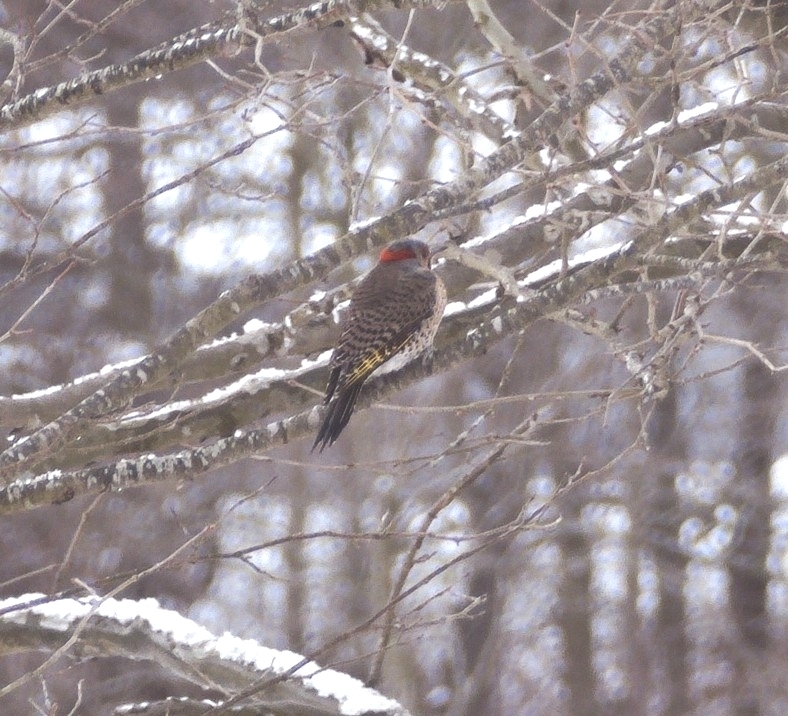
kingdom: Animalia
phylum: Chordata
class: Aves
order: Piciformes
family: Picidae
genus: Colaptes
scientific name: Colaptes auratus
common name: Northern flicker
